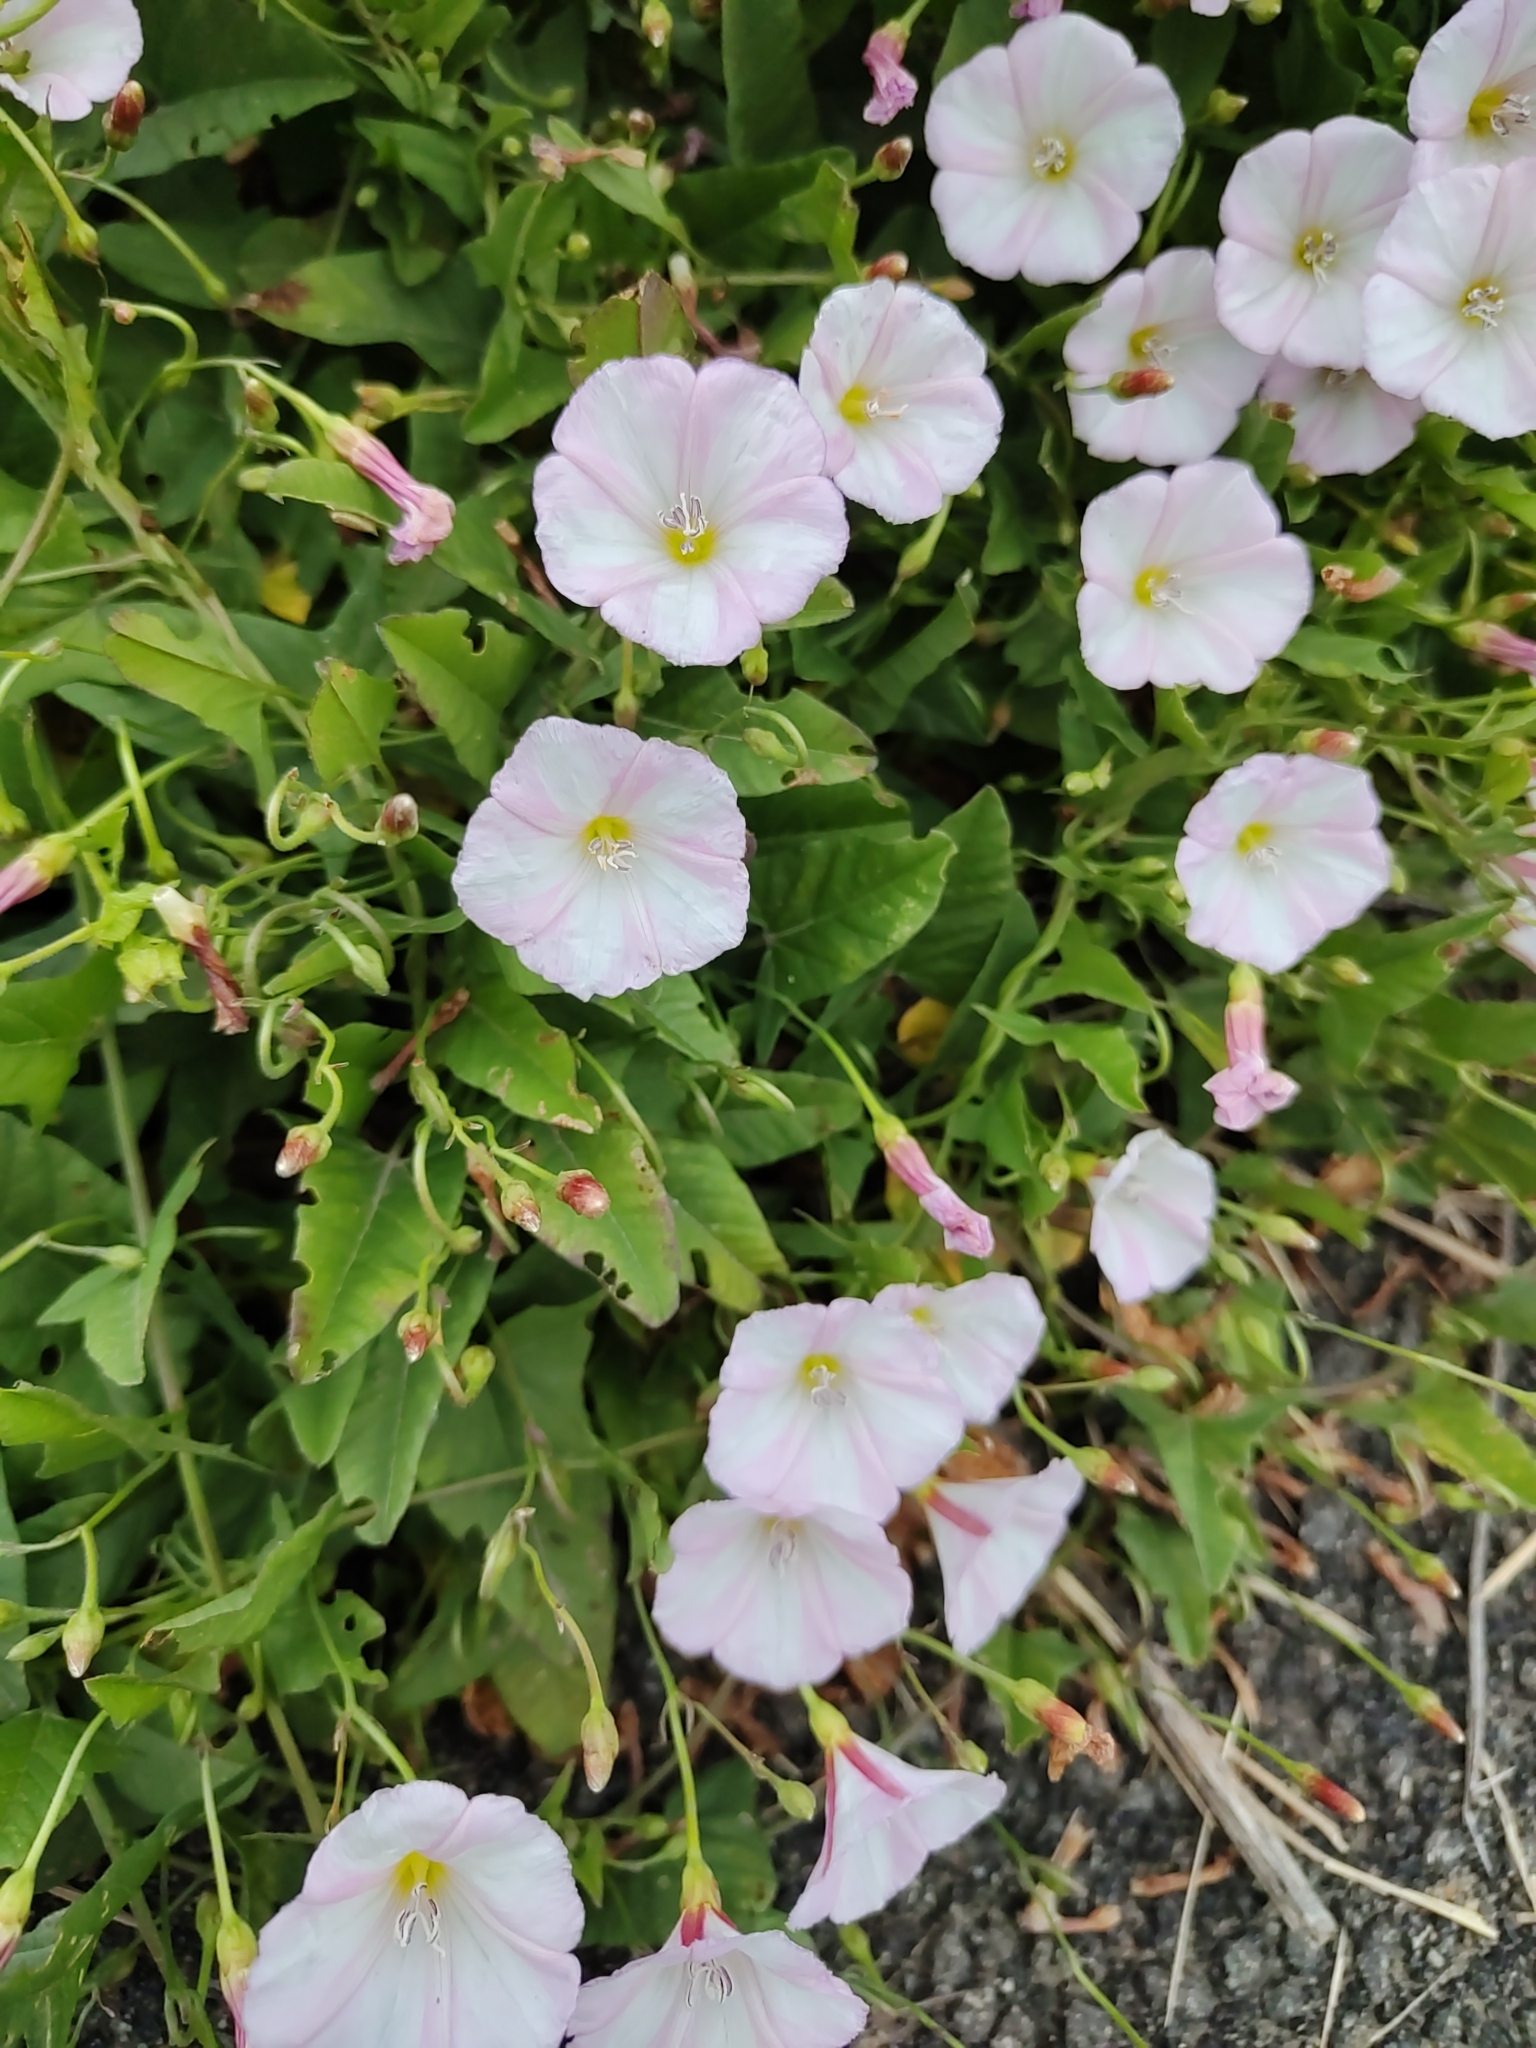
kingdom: Plantae
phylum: Tracheophyta
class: Magnoliopsida
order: Solanales
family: Convolvulaceae
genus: Convolvulus
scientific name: Convolvulus arvensis
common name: Field bindweed
